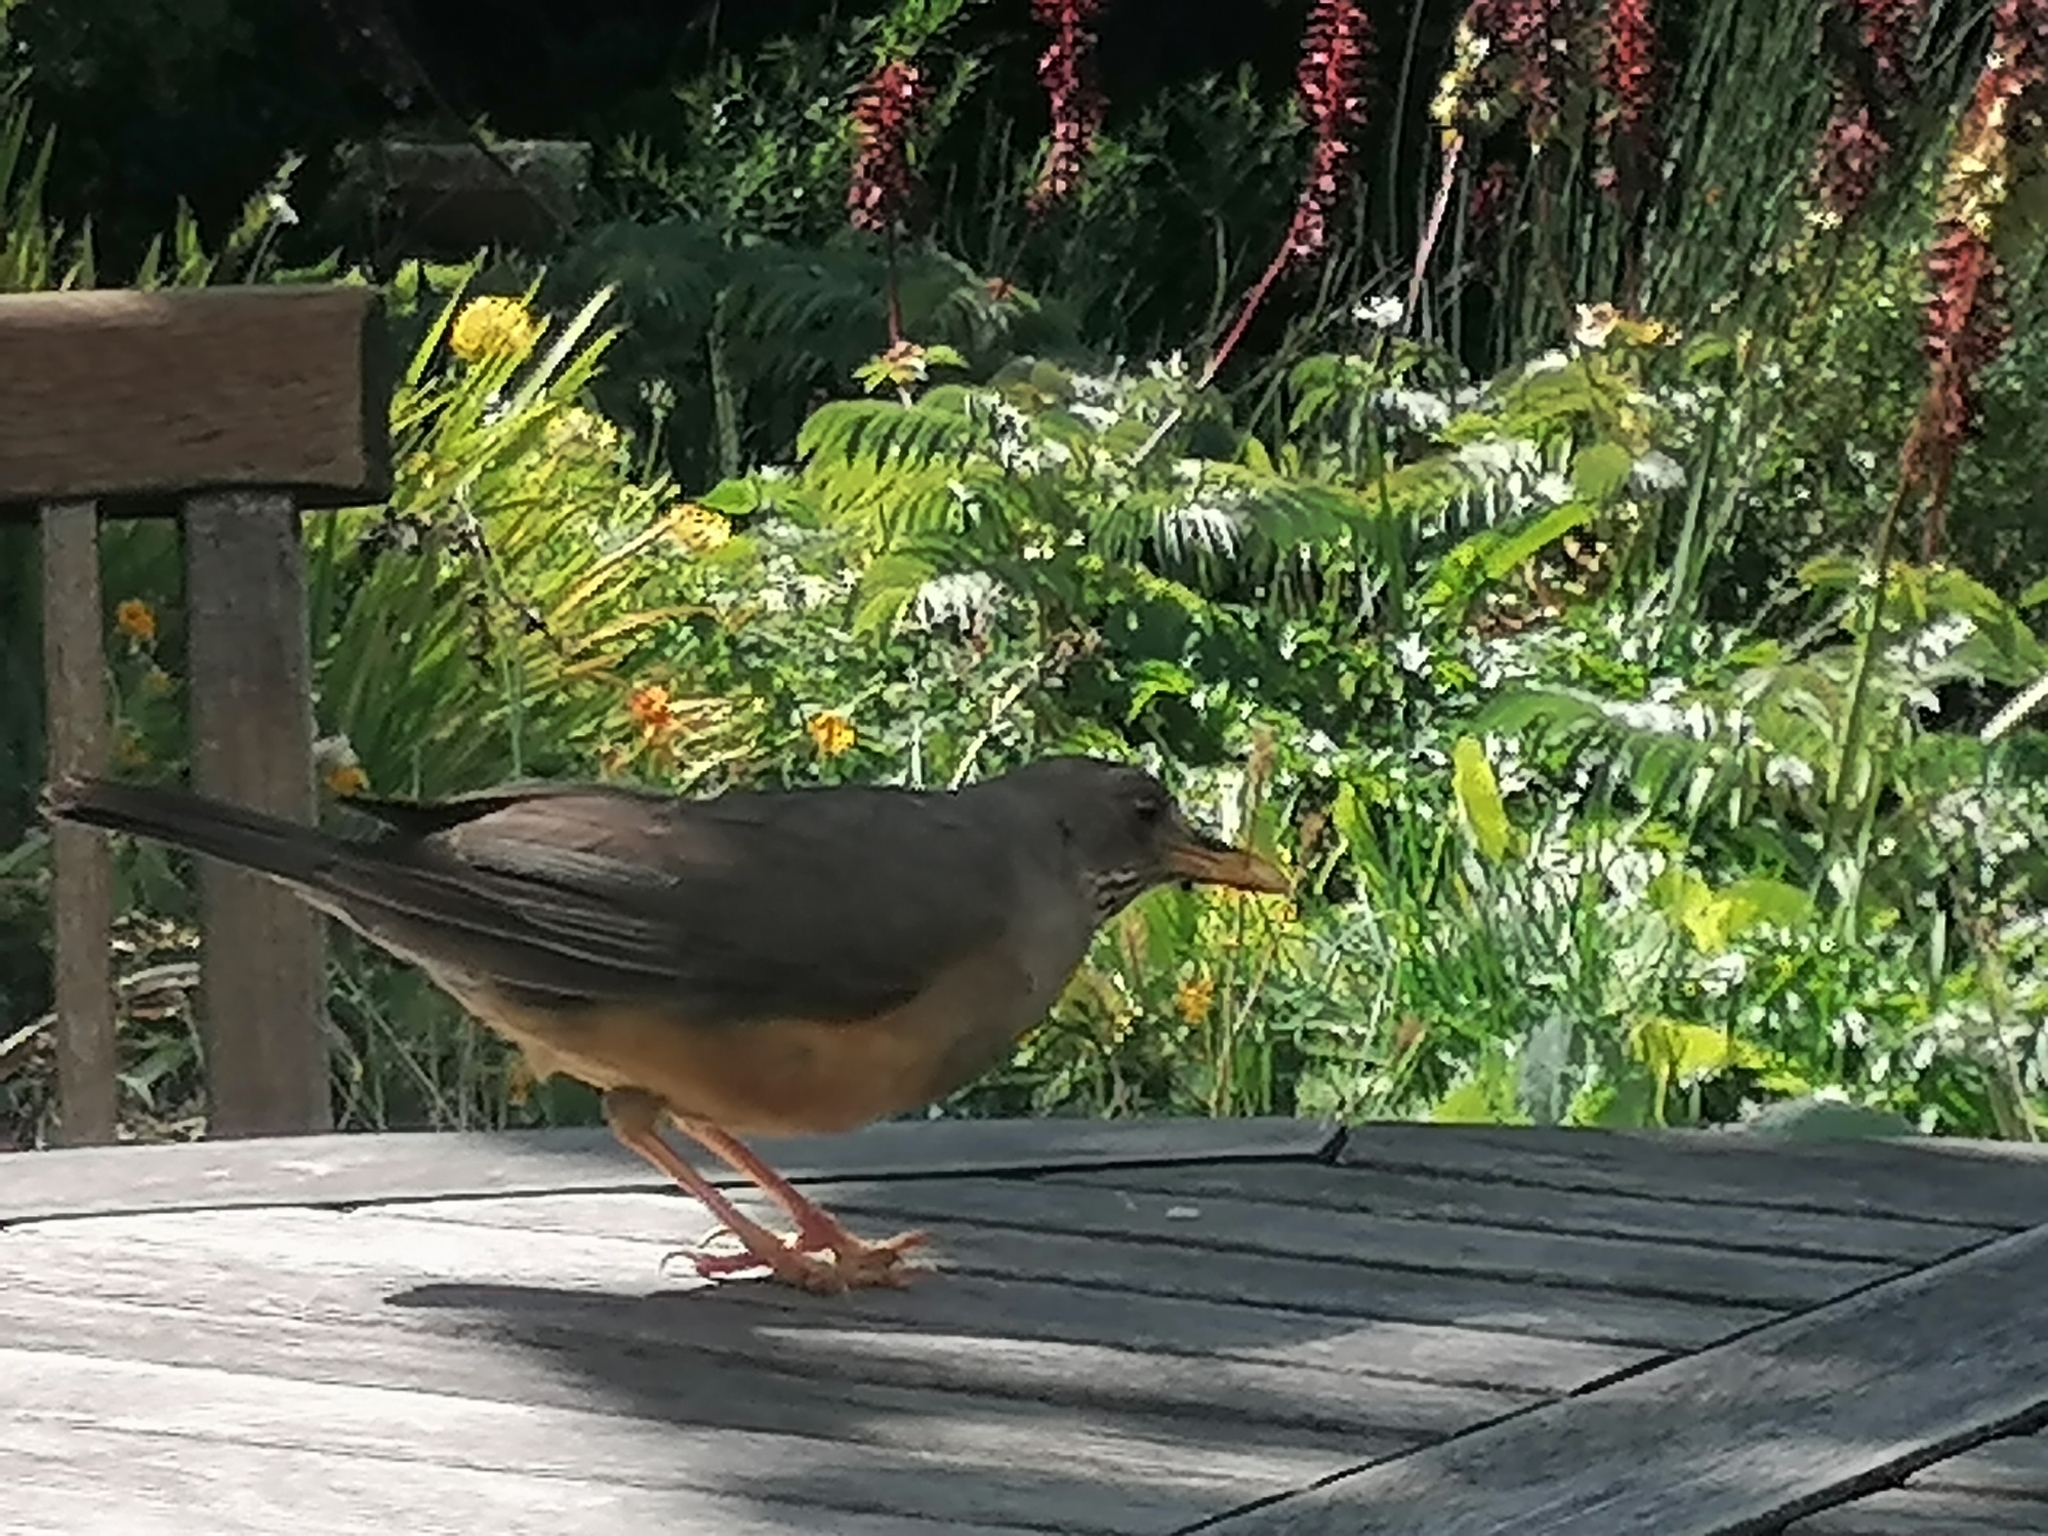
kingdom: Animalia
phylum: Chordata
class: Aves
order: Passeriformes
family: Turdidae
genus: Turdus
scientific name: Turdus olivaceus
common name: Olive thrush
